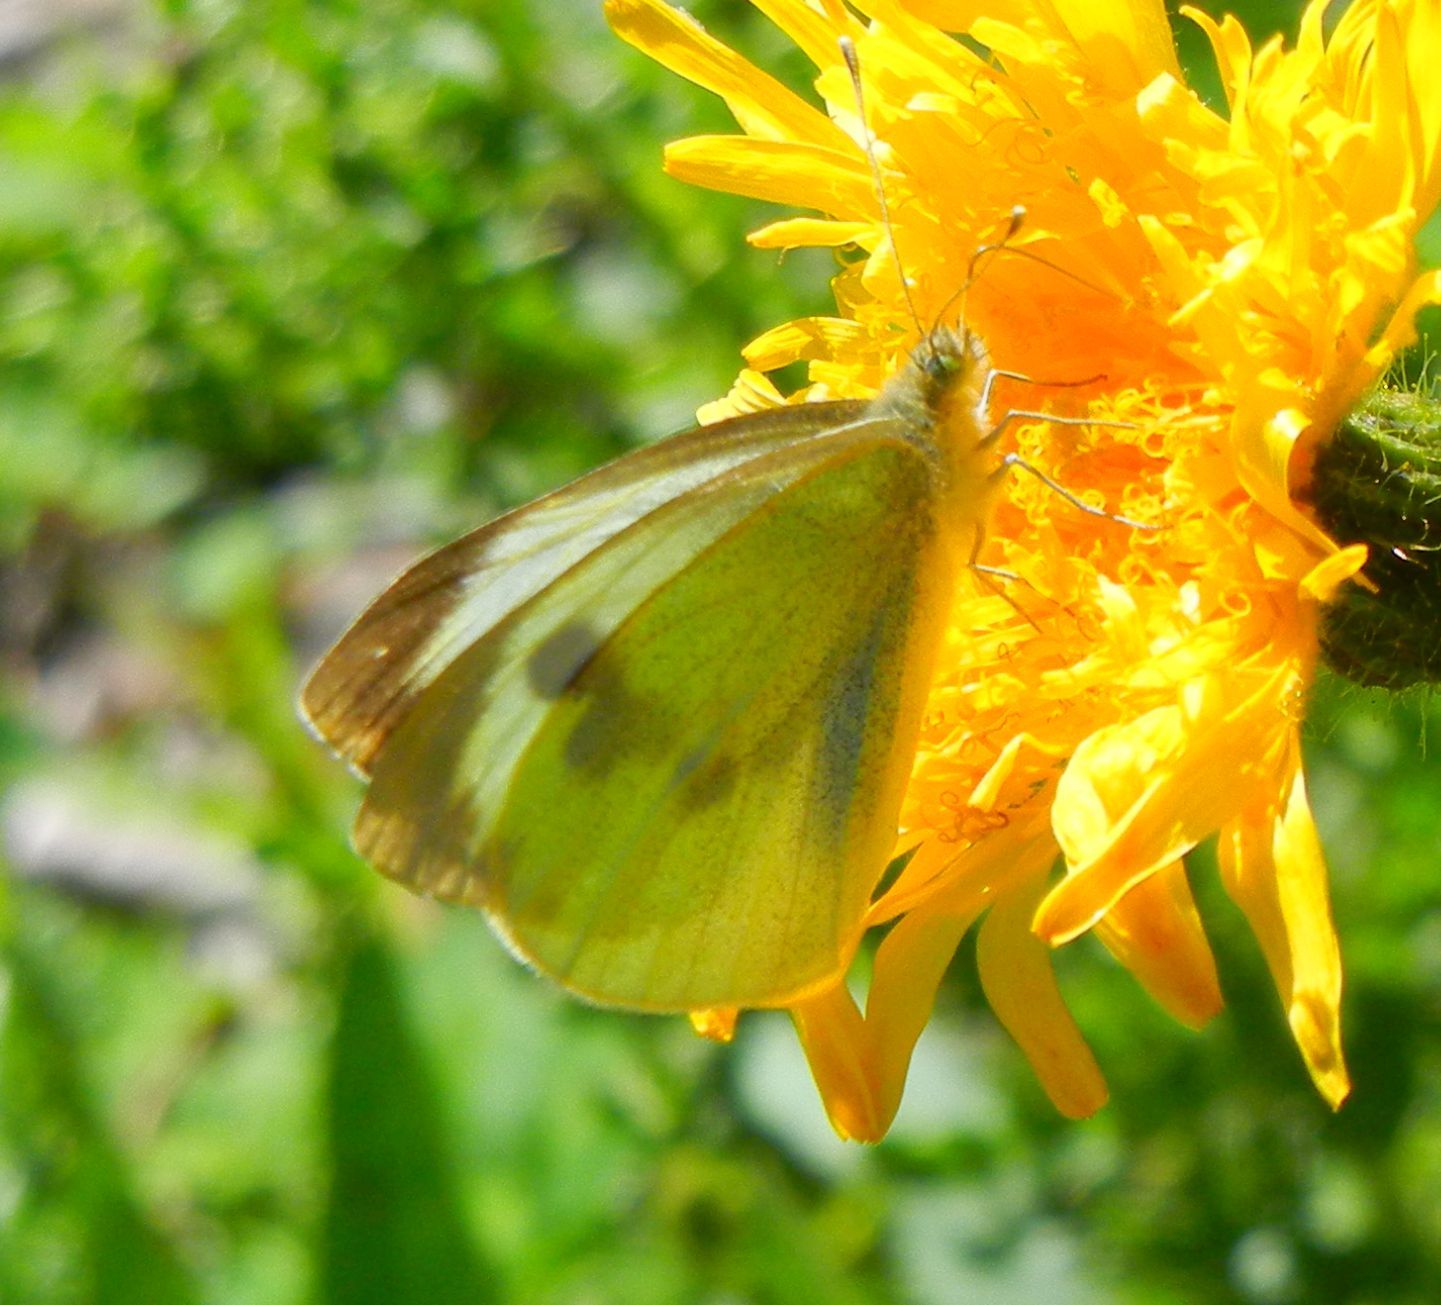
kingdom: Animalia
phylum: Arthropoda
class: Insecta
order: Lepidoptera
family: Pieridae
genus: Pieris
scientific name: Pieris brassicae
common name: Large white
